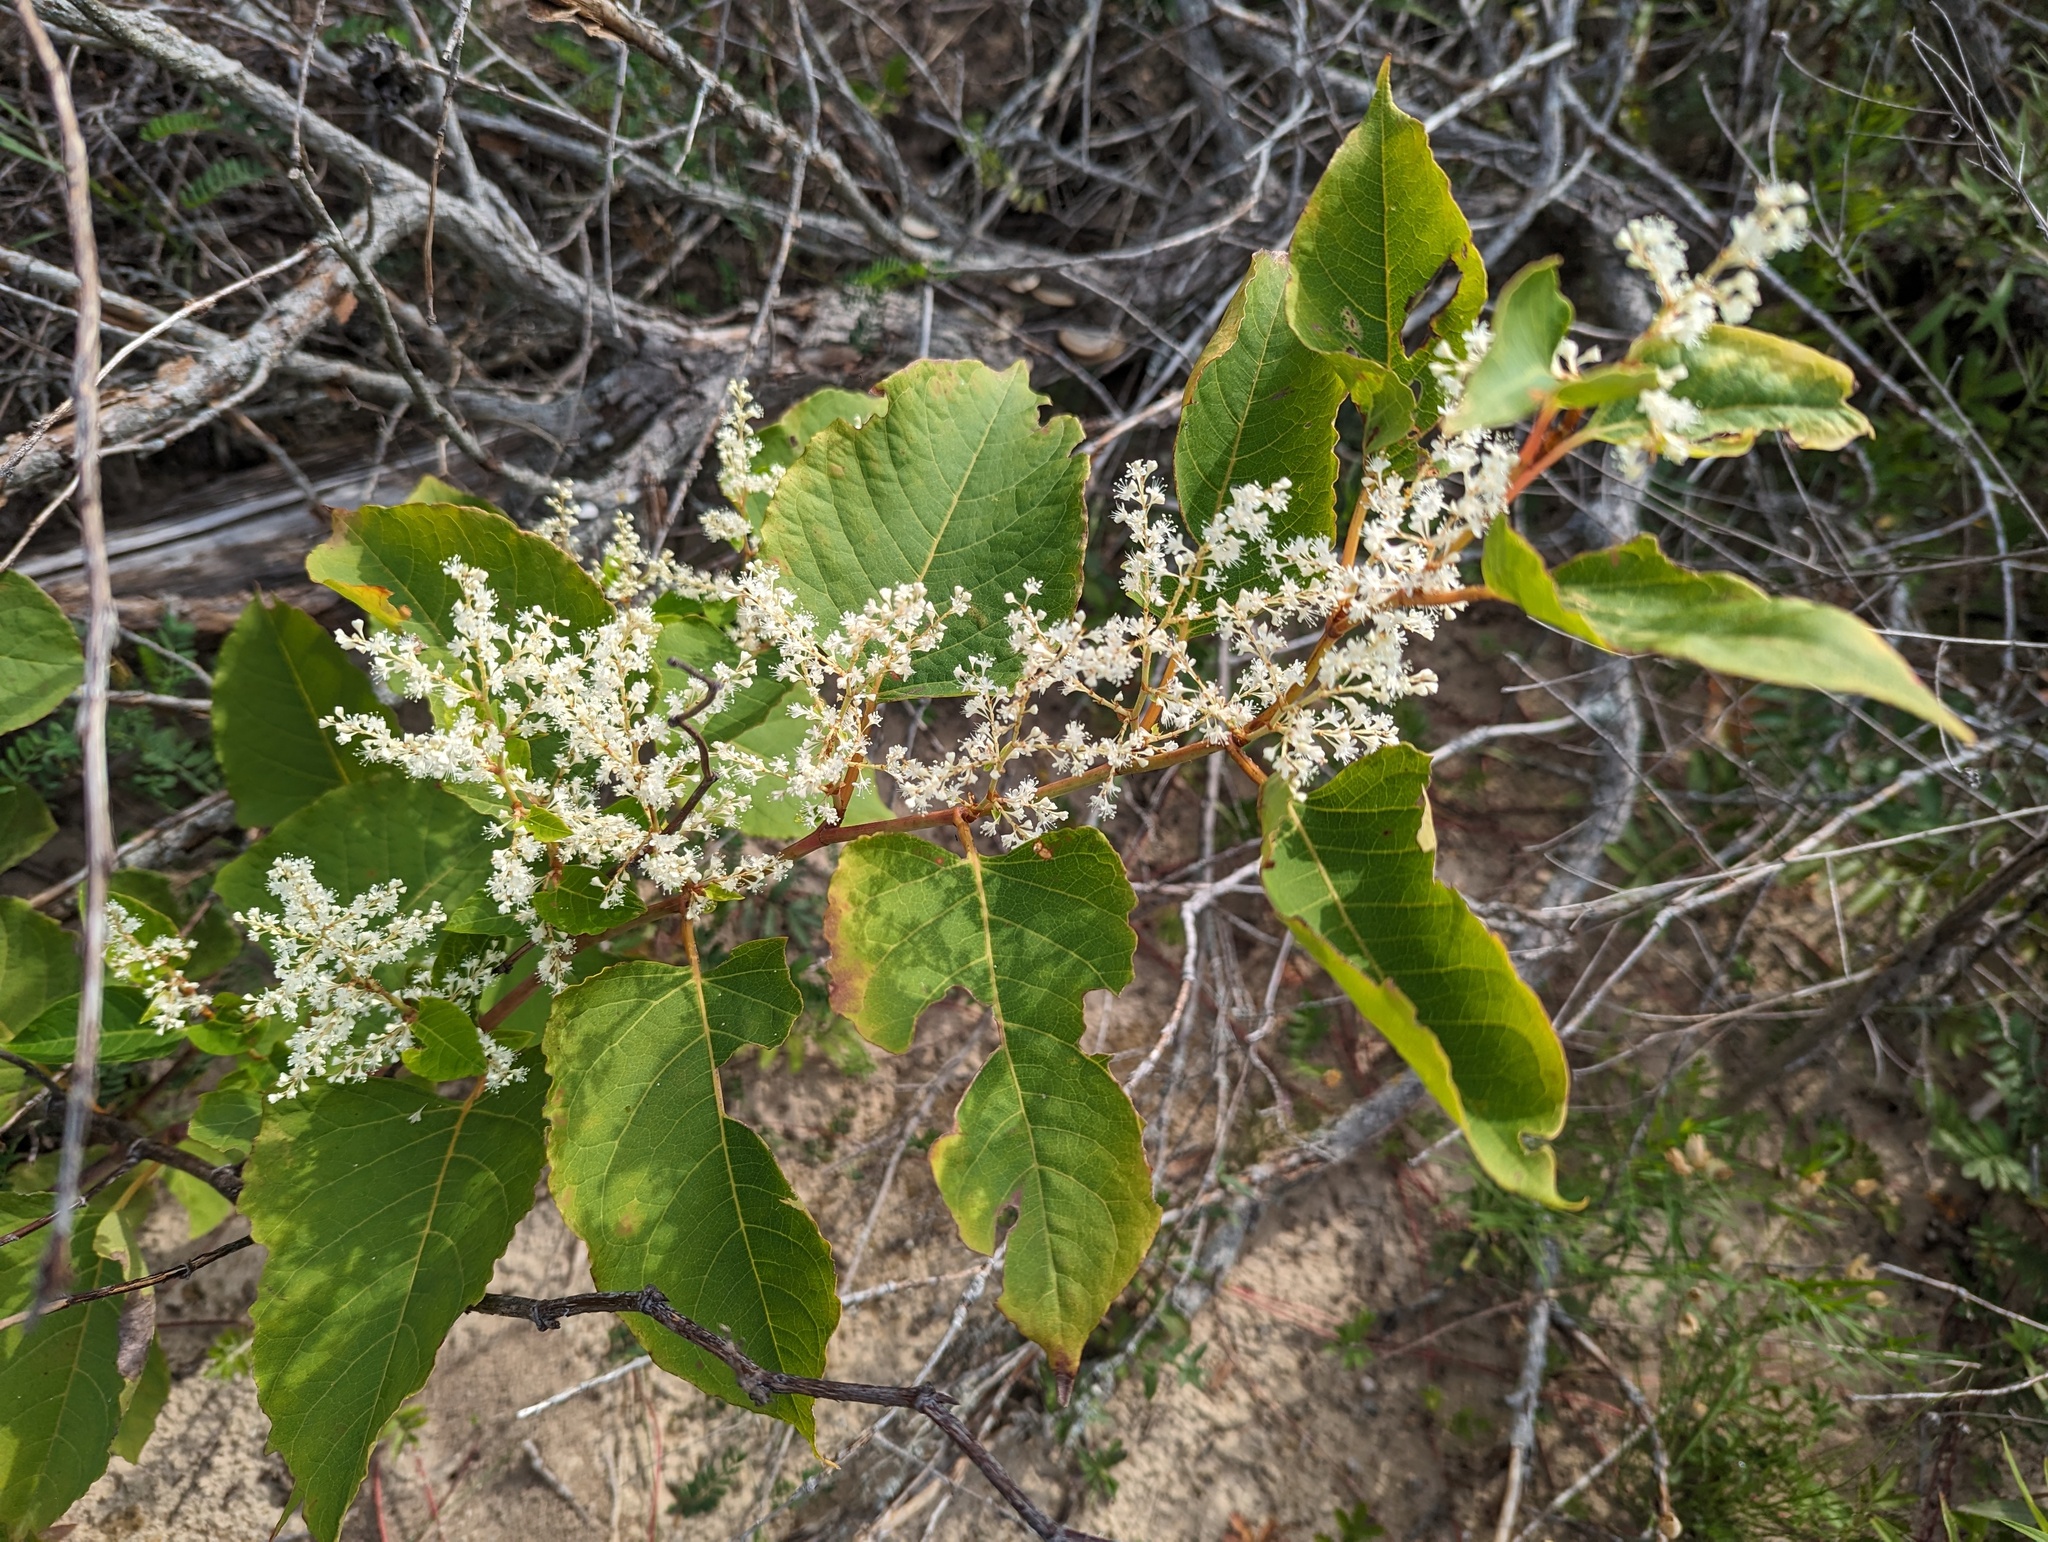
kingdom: Plantae
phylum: Tracheophyta
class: Magnoliopsida
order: Caryophyllales
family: Polygonaceae
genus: Reynoutria
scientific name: Reynoutria japonica
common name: Japanese knotweed
